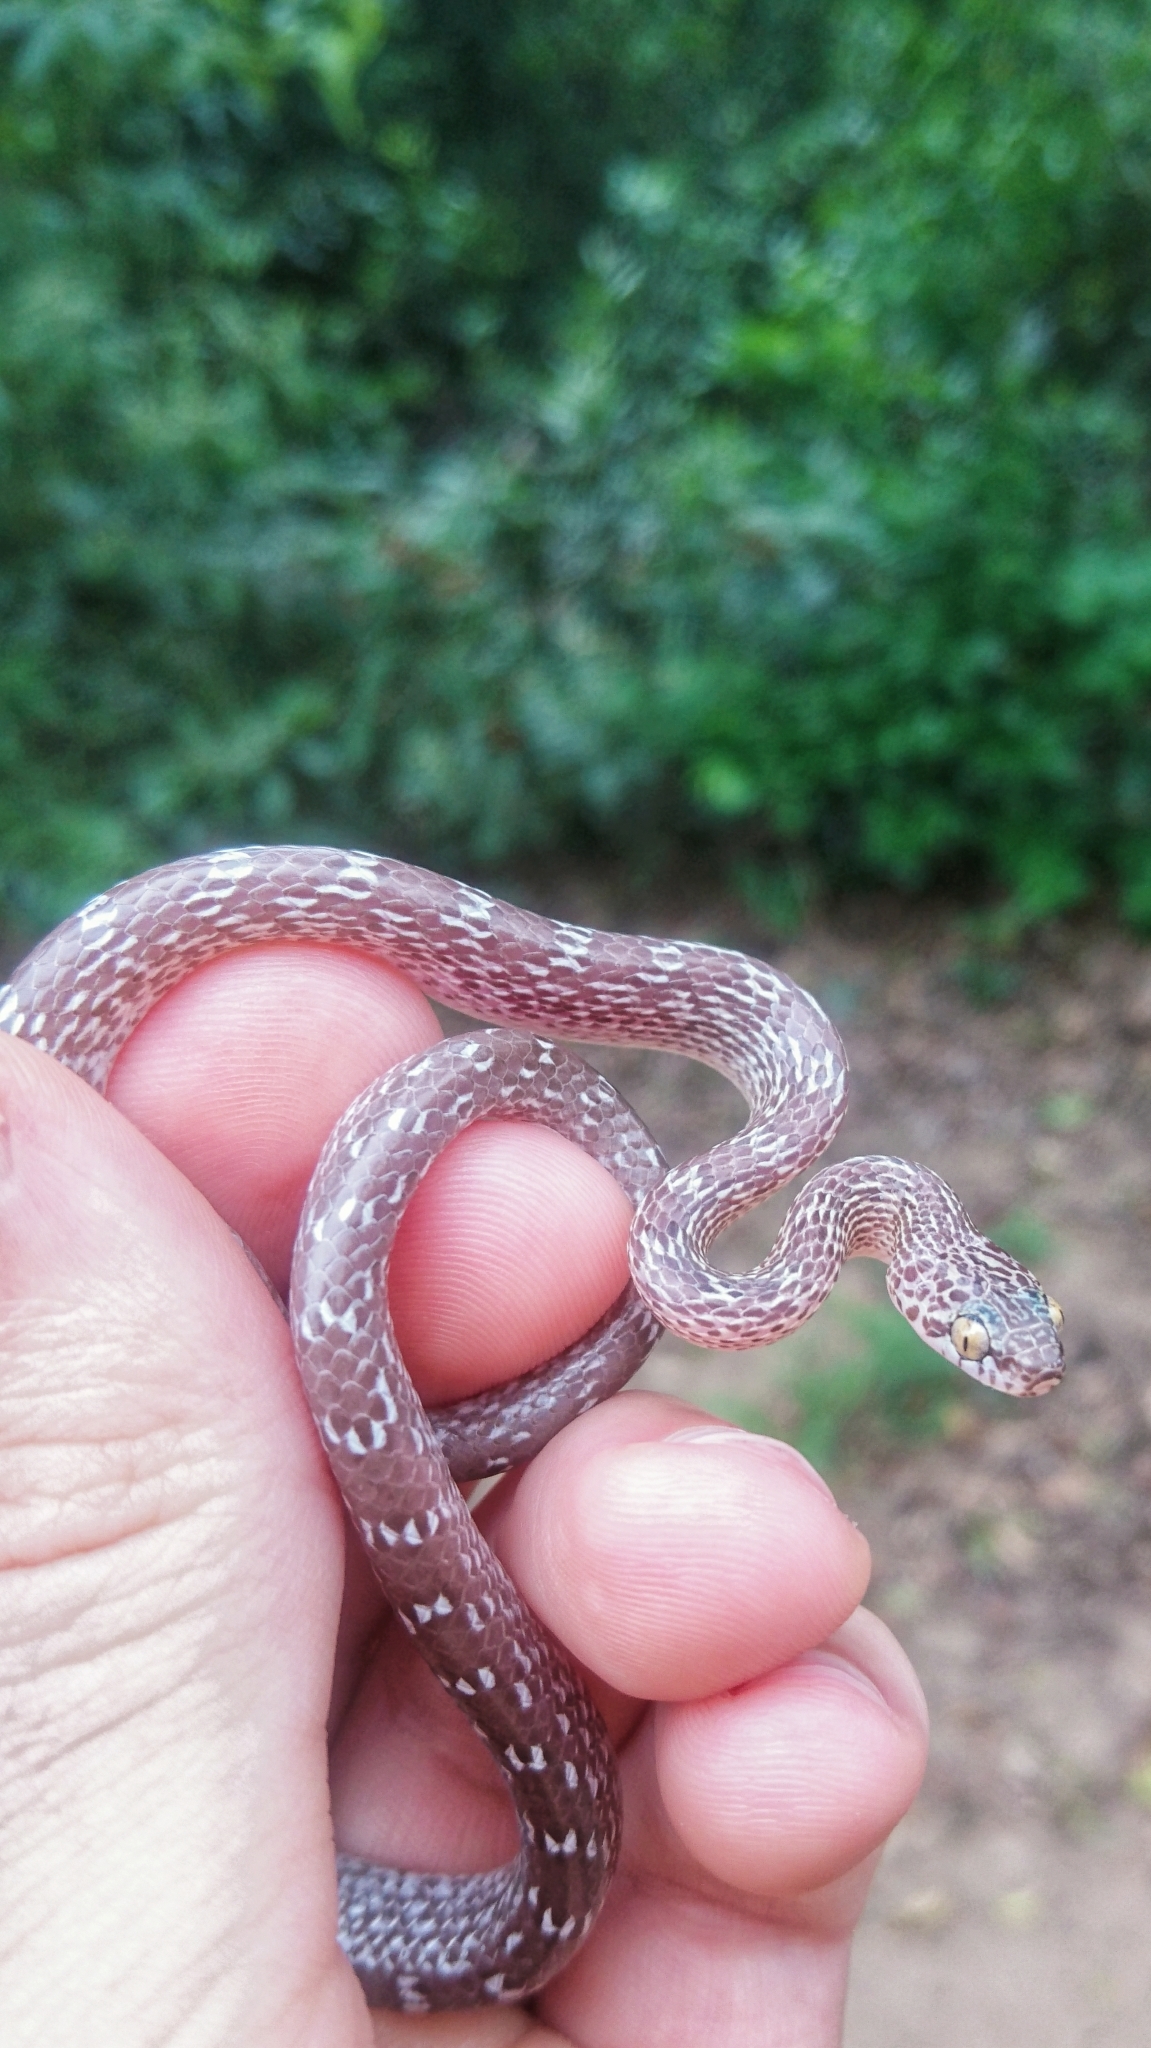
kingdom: Animalia
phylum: Chordata
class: Squamata
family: Colubridae
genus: Dipsadoboa
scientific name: Dipsadoboa aulica
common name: Cross-barred snake
